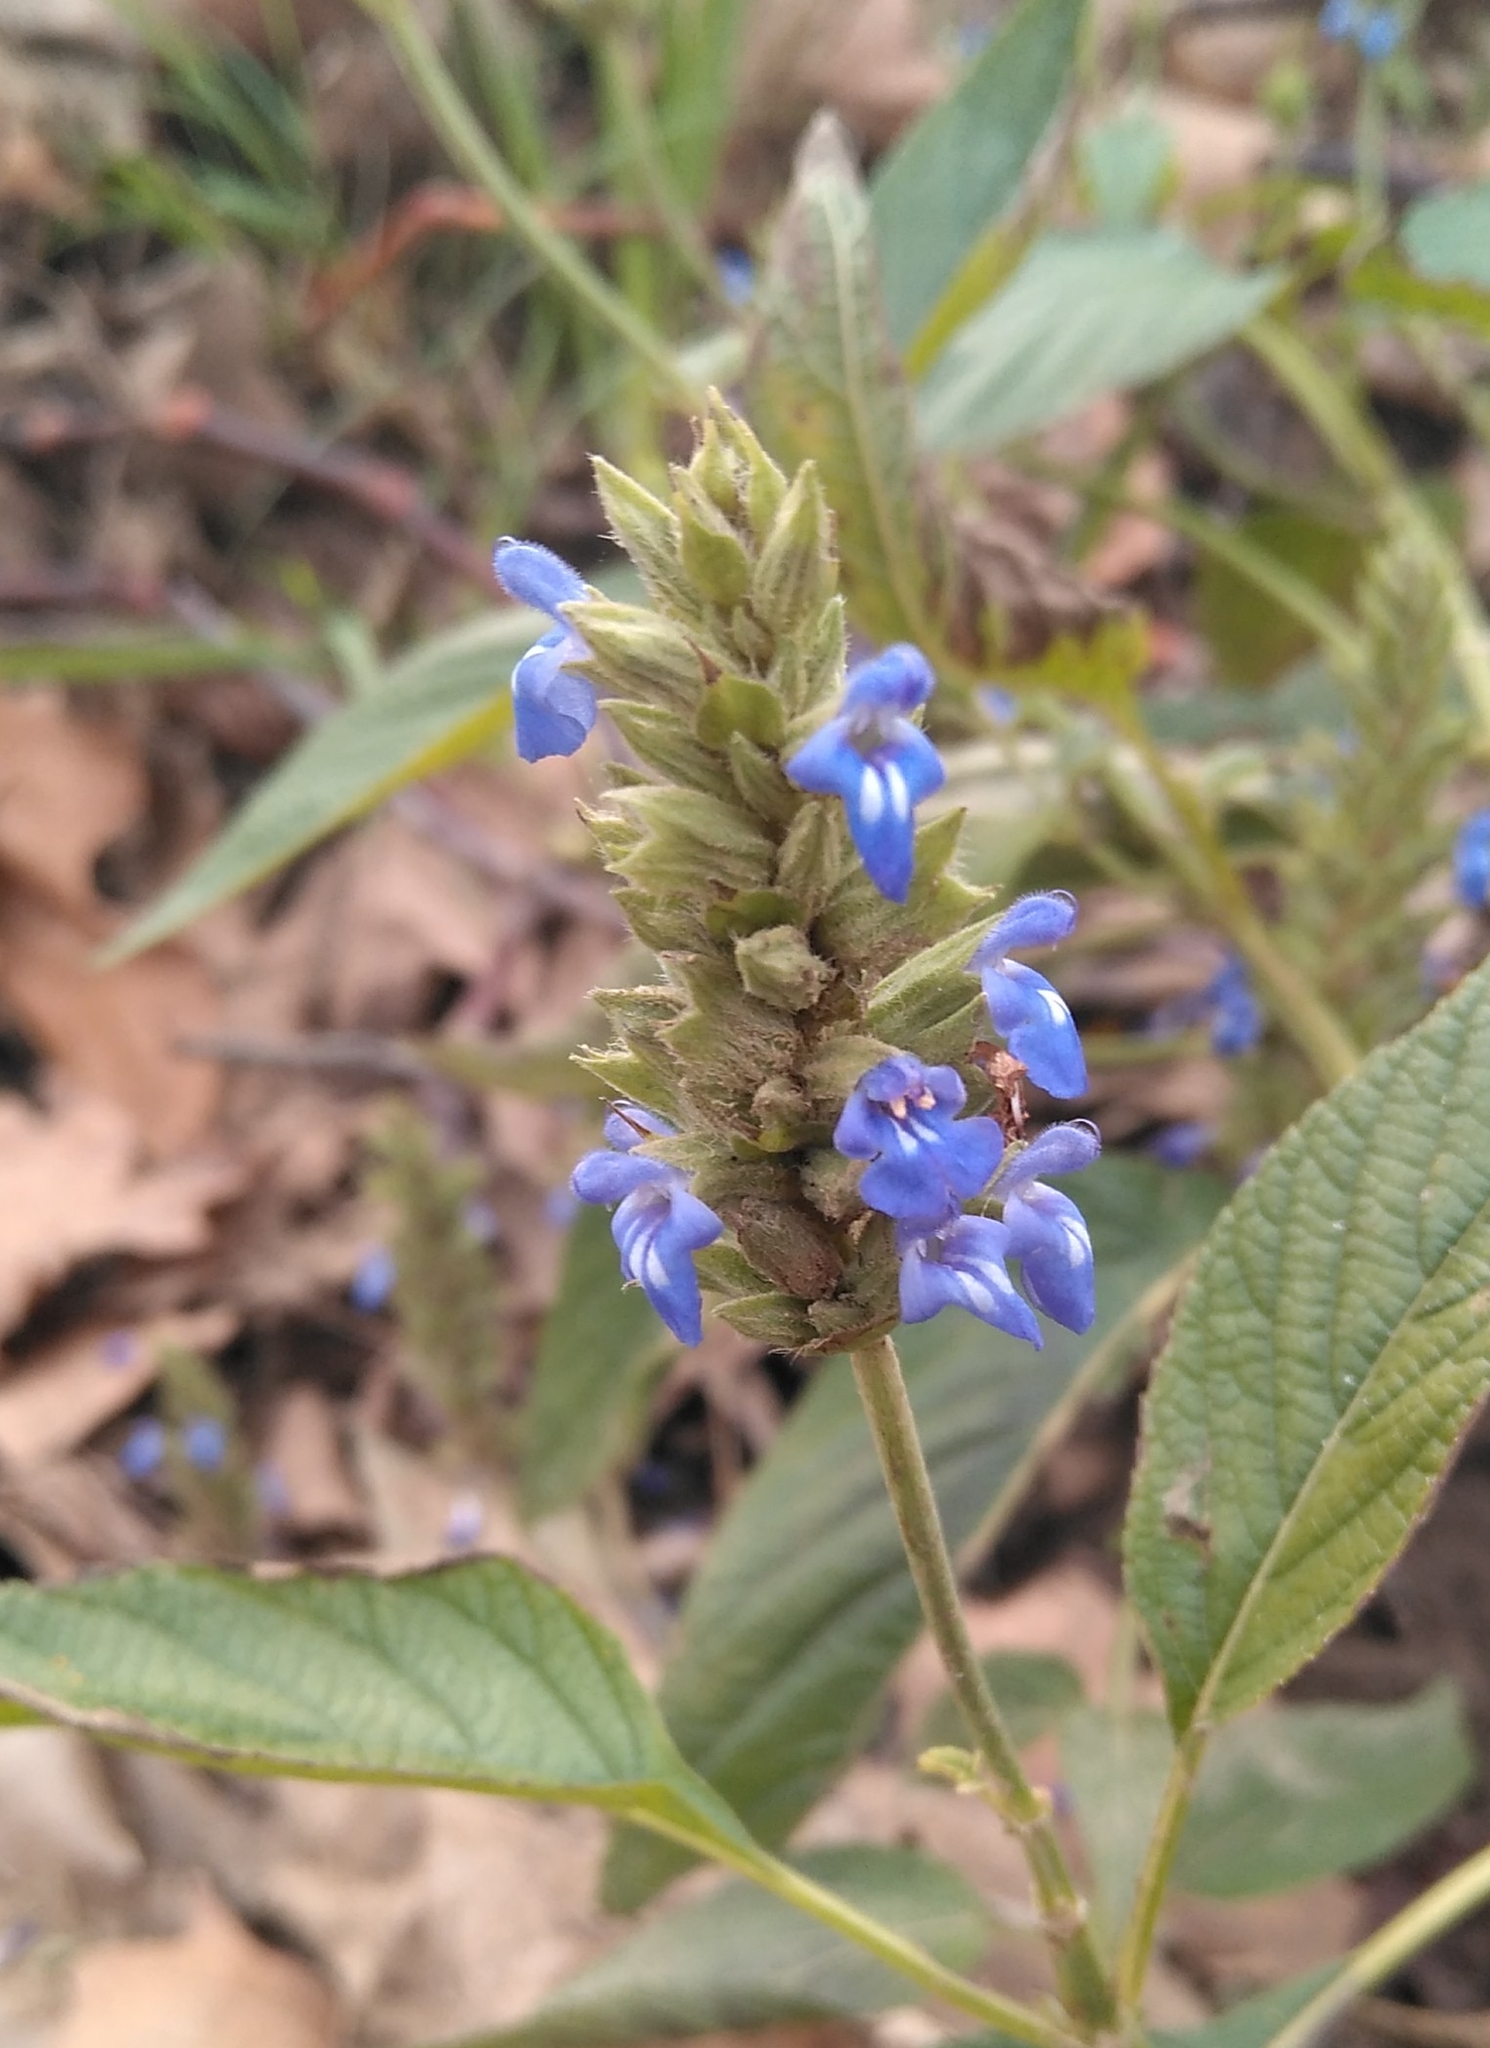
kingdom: Plantae
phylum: Tracheophyta
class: Magnoliopsida
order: Lamiales
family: Lamiaceae
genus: Salvia
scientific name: Salvia hispanica
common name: Chia
